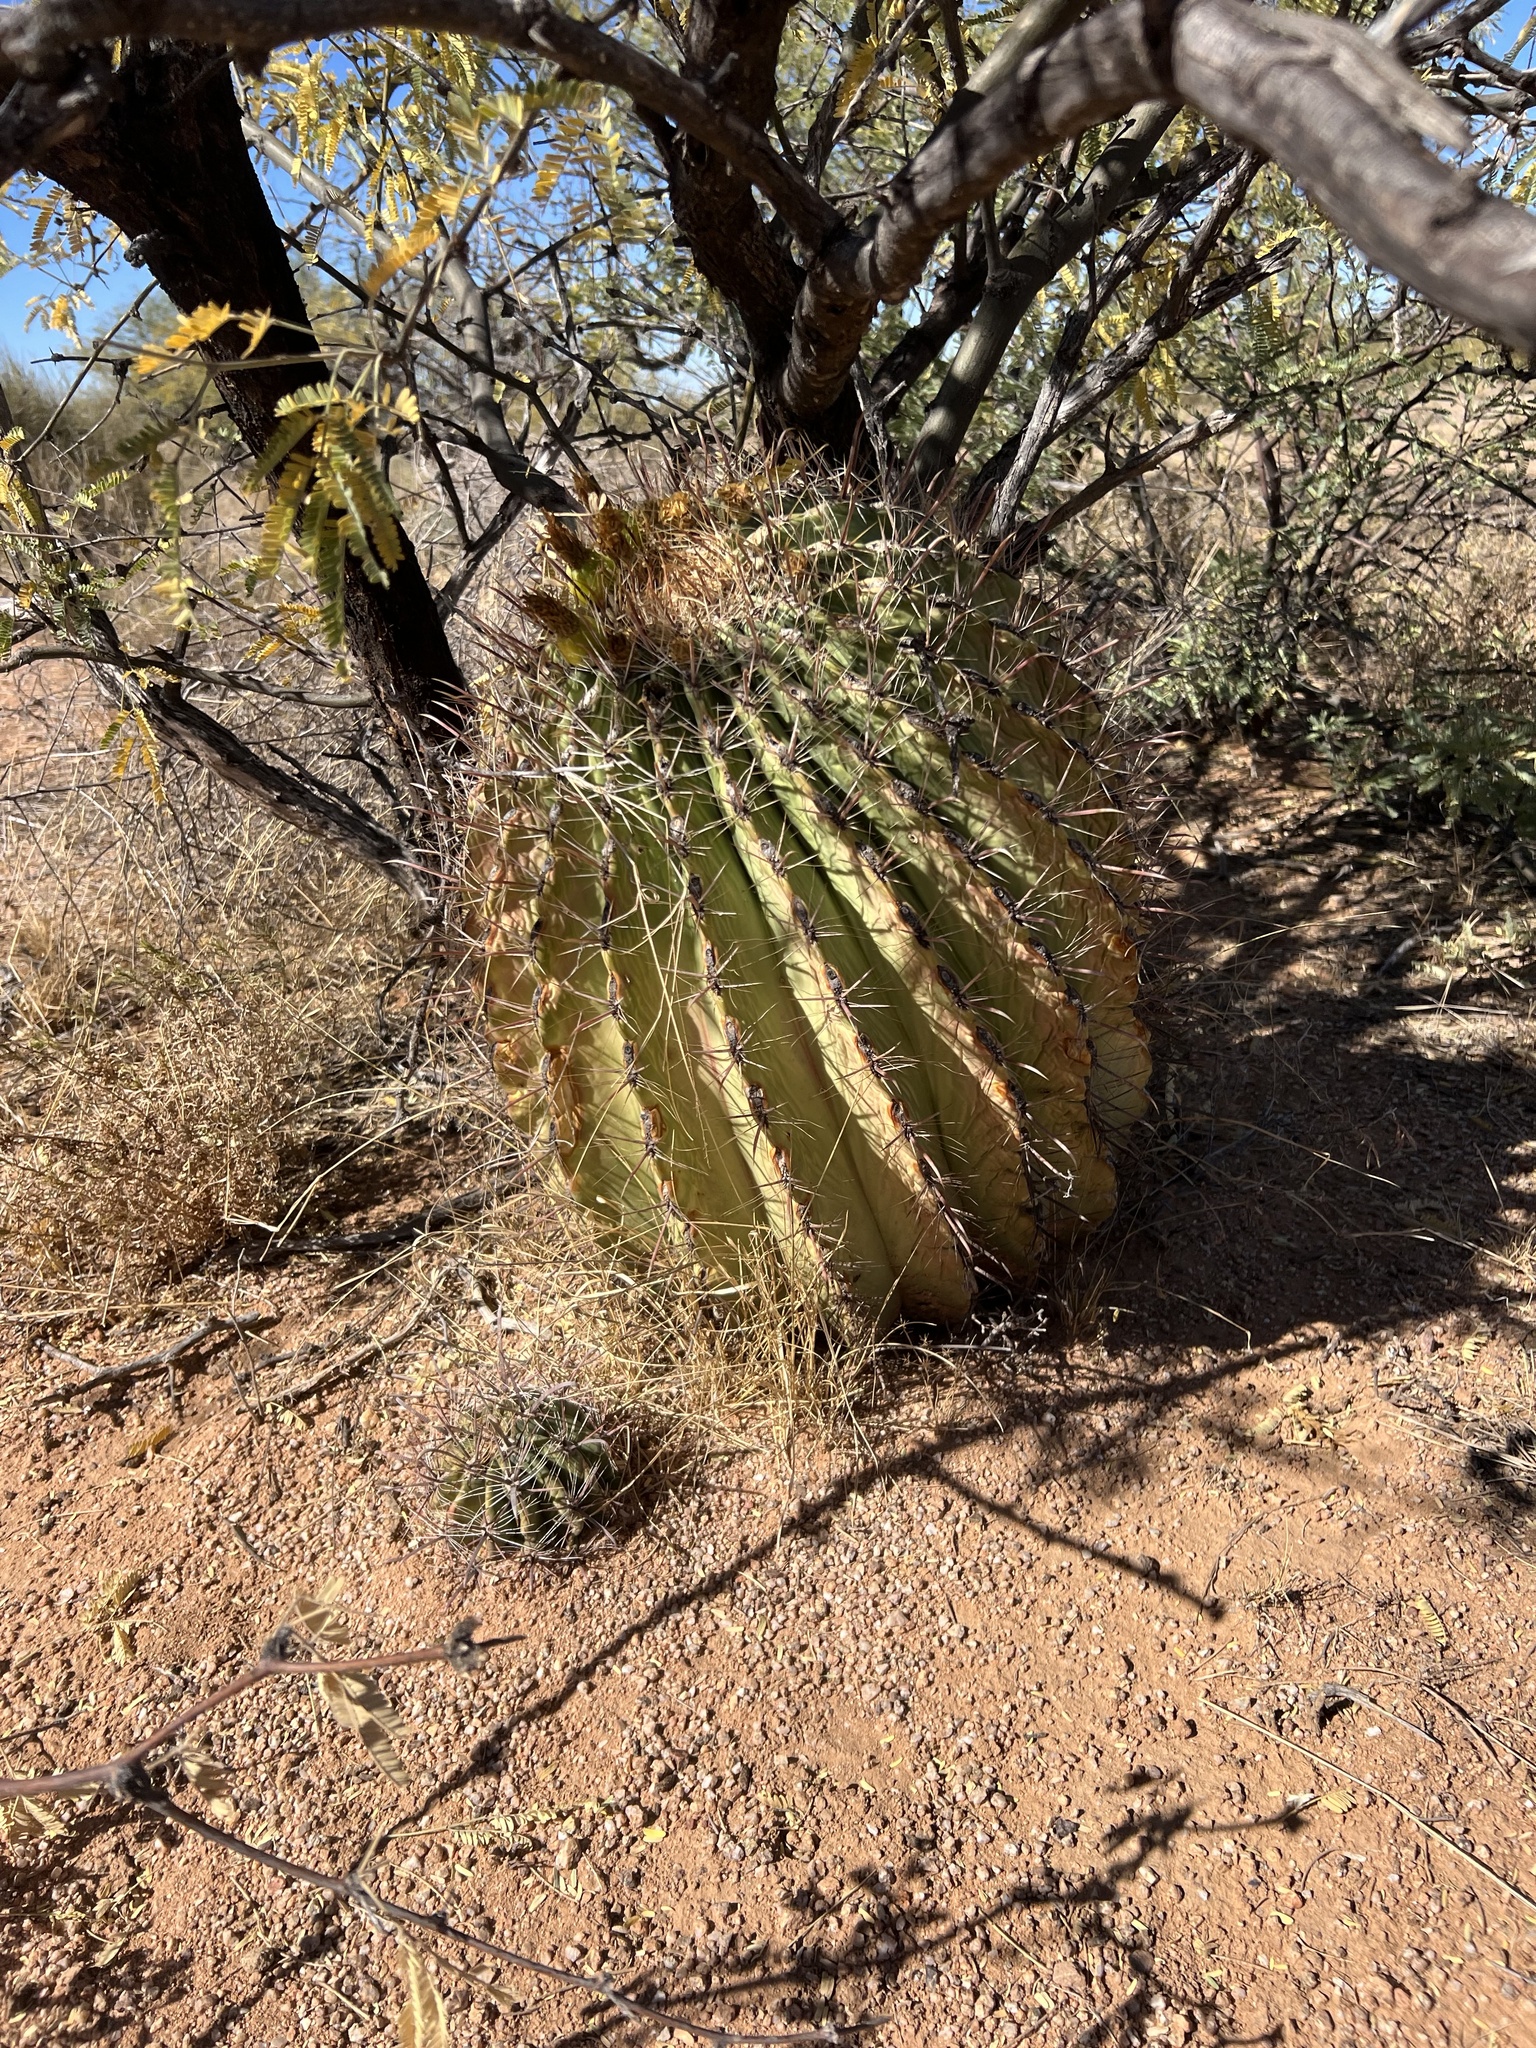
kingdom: Plantae
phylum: Tracheophyta
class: Magnoliopsida
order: Caryophyllales
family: Cactaceae
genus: Ferocactus
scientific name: Ferocactus wislizeni
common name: Candy barrel cactus
